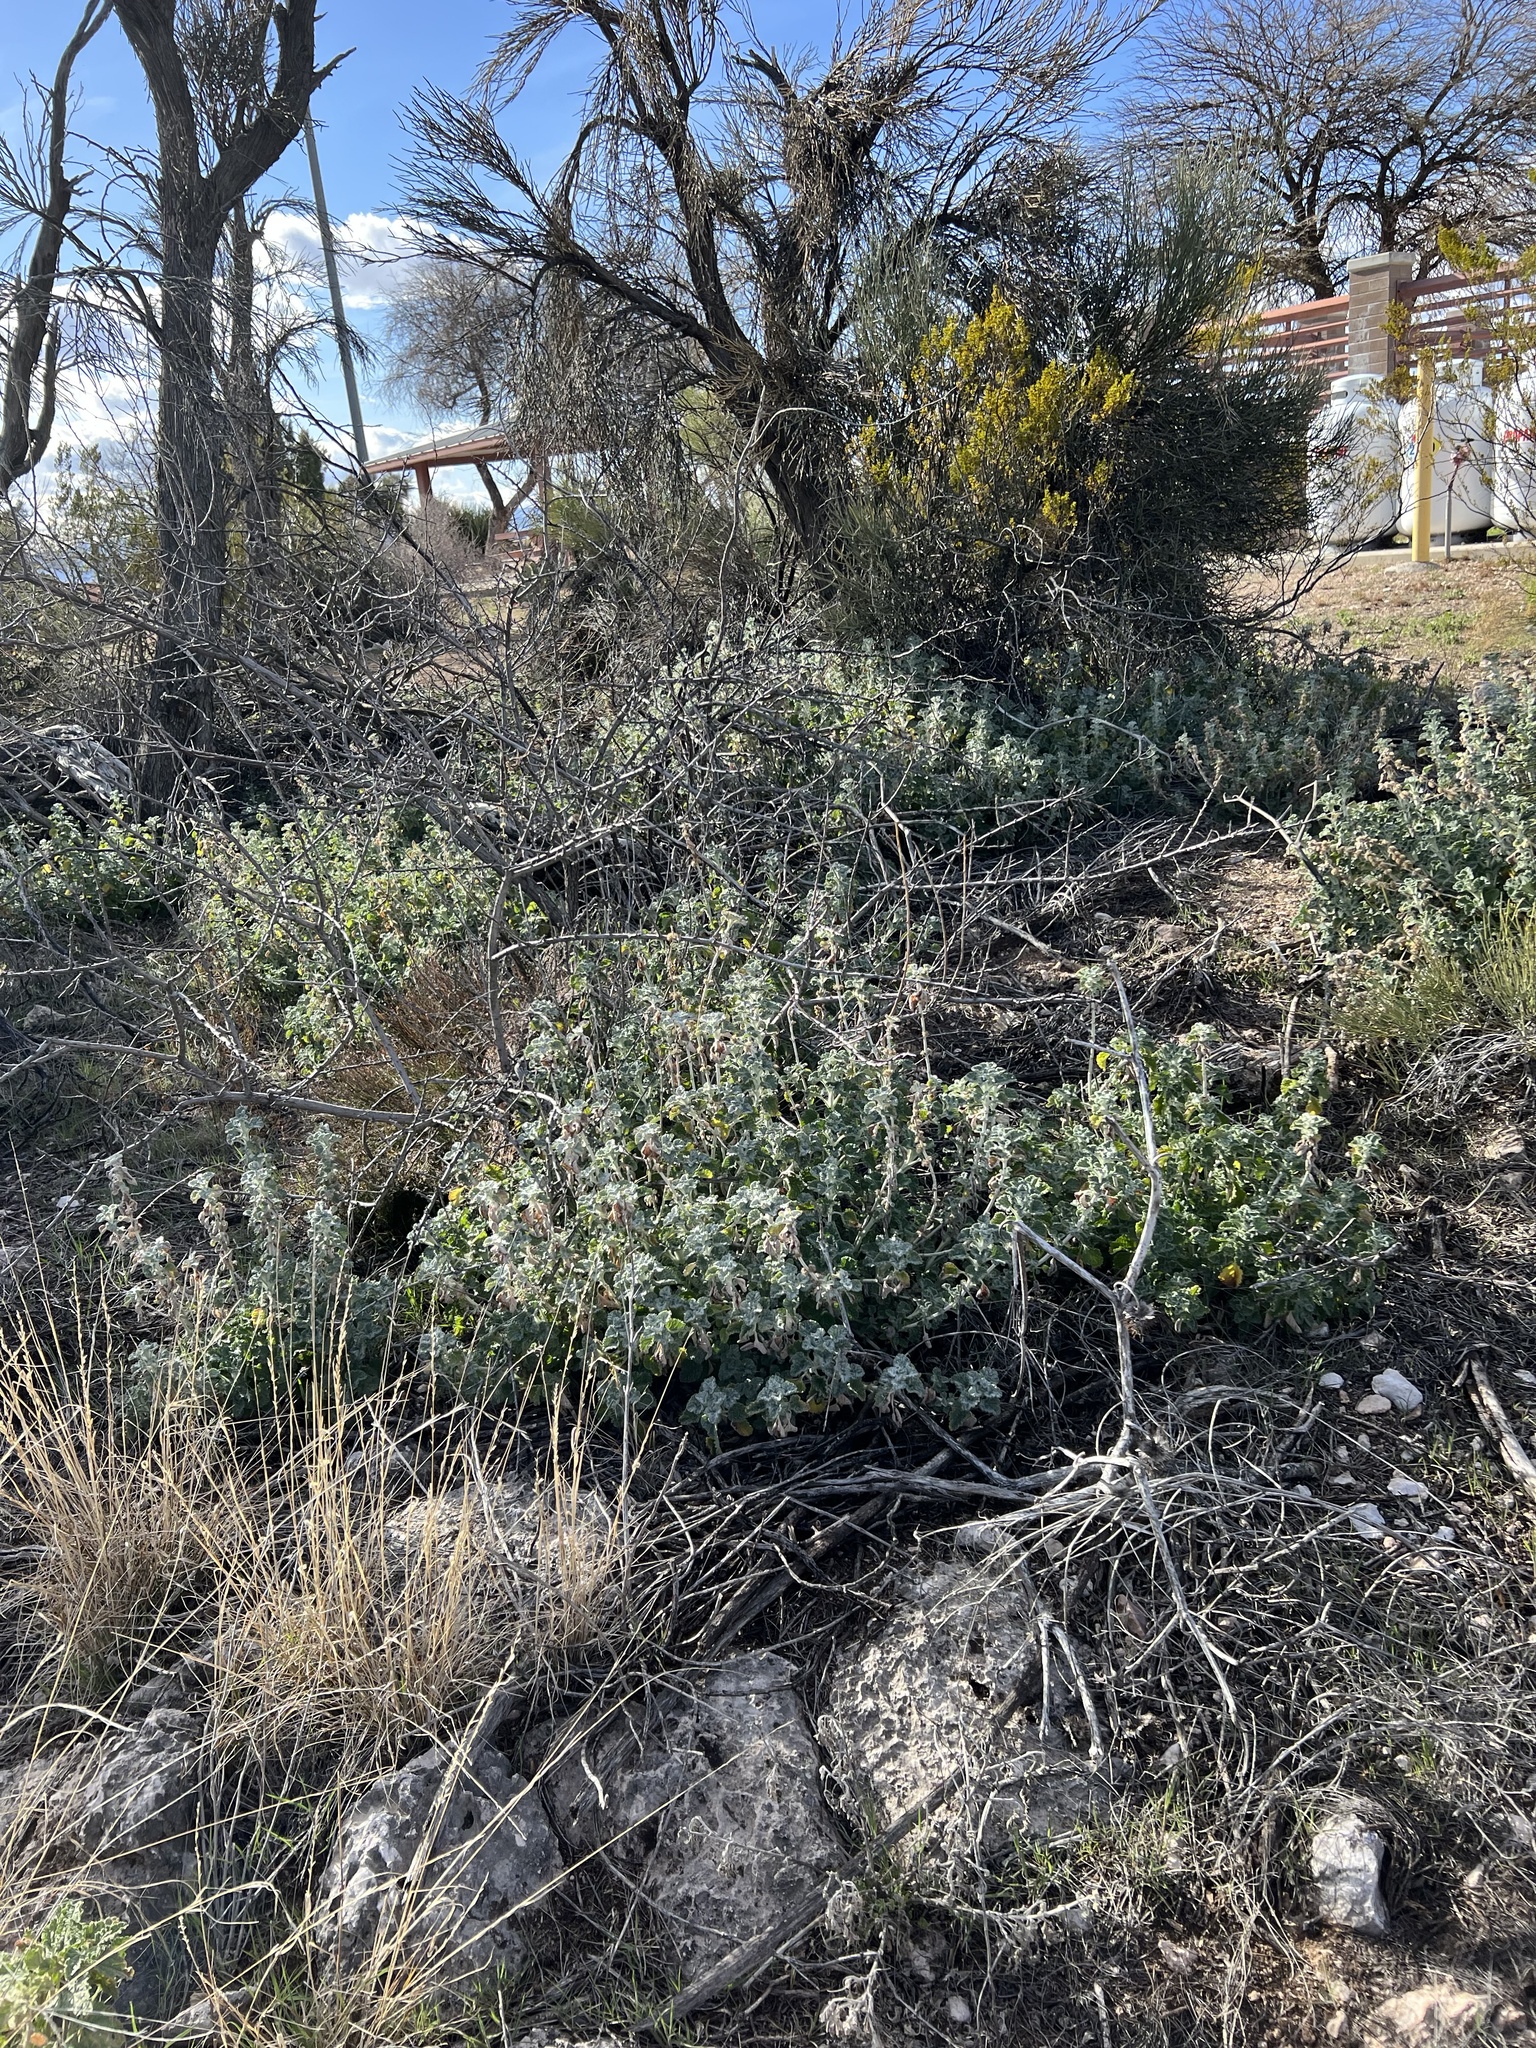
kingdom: Plantae
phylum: Tracheophyta
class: Magnoliopsida
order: Lamiales
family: Lamiaceae
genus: Marrubium
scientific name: Marrubium vulgare
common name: Horehound
